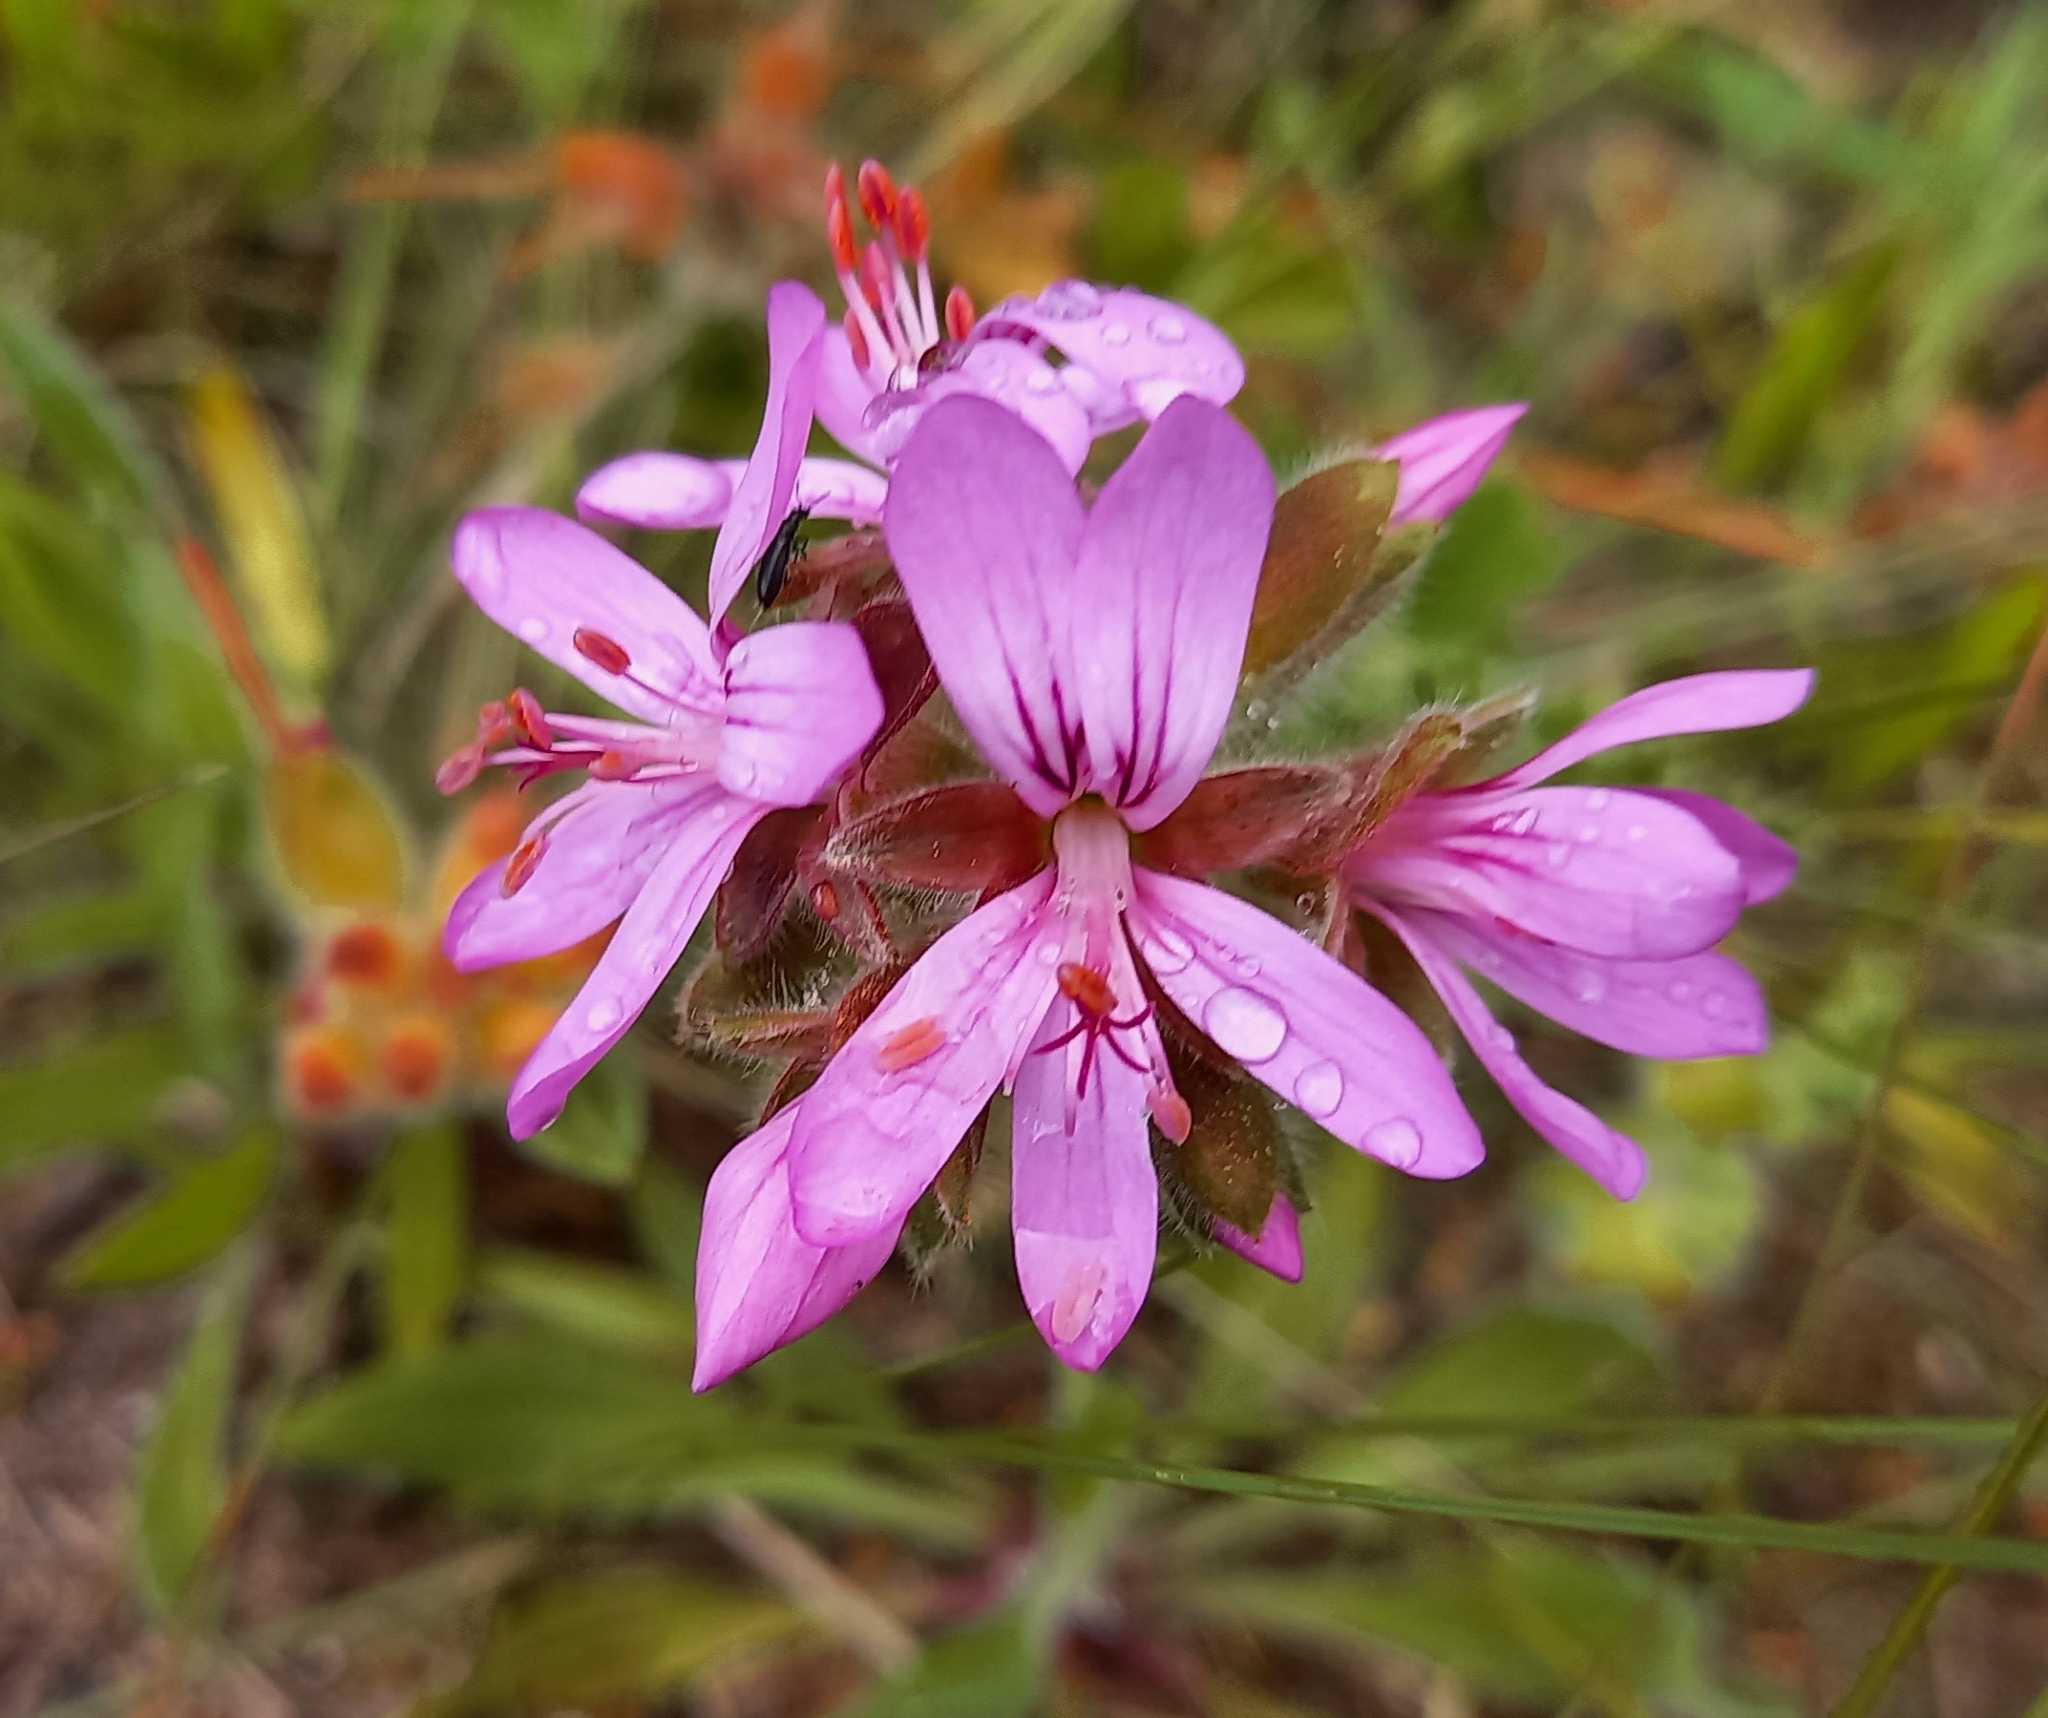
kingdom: Plantae
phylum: Tracheophyta
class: Magnoliopsida
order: Geraniales
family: Geraniaceae
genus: Pelargonium
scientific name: Pelargonium capitatum
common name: Rose scented geranium
